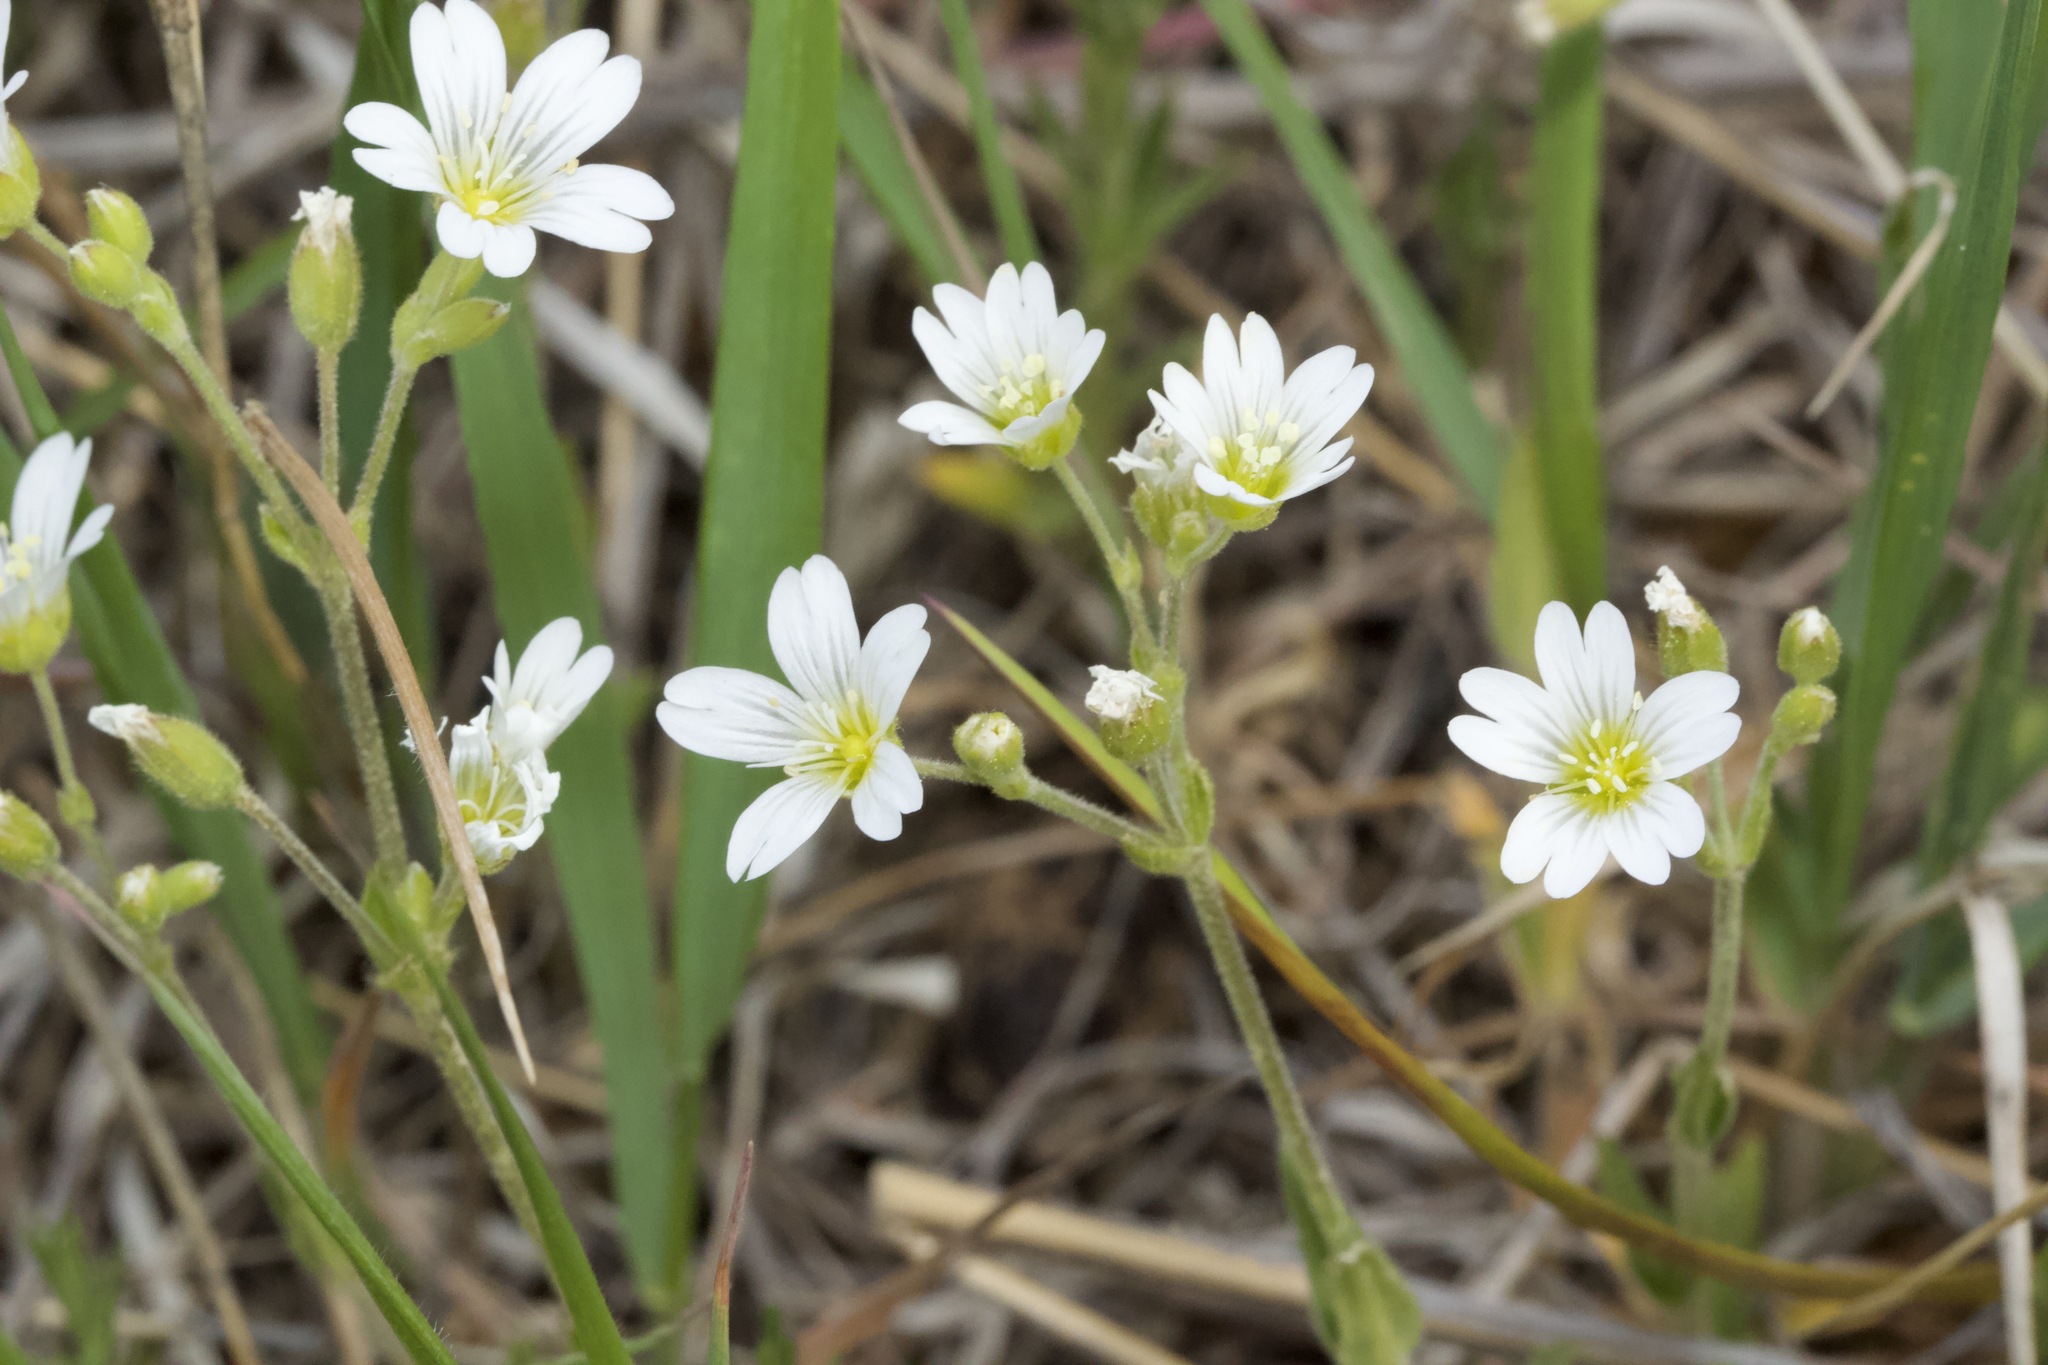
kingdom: Plantae
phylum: Tracheophyta
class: Magnoliopsida
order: Caryophyllales
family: Caryophyllaceae
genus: Cerastium
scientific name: Cerastium arvense
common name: Field mouse-ear
